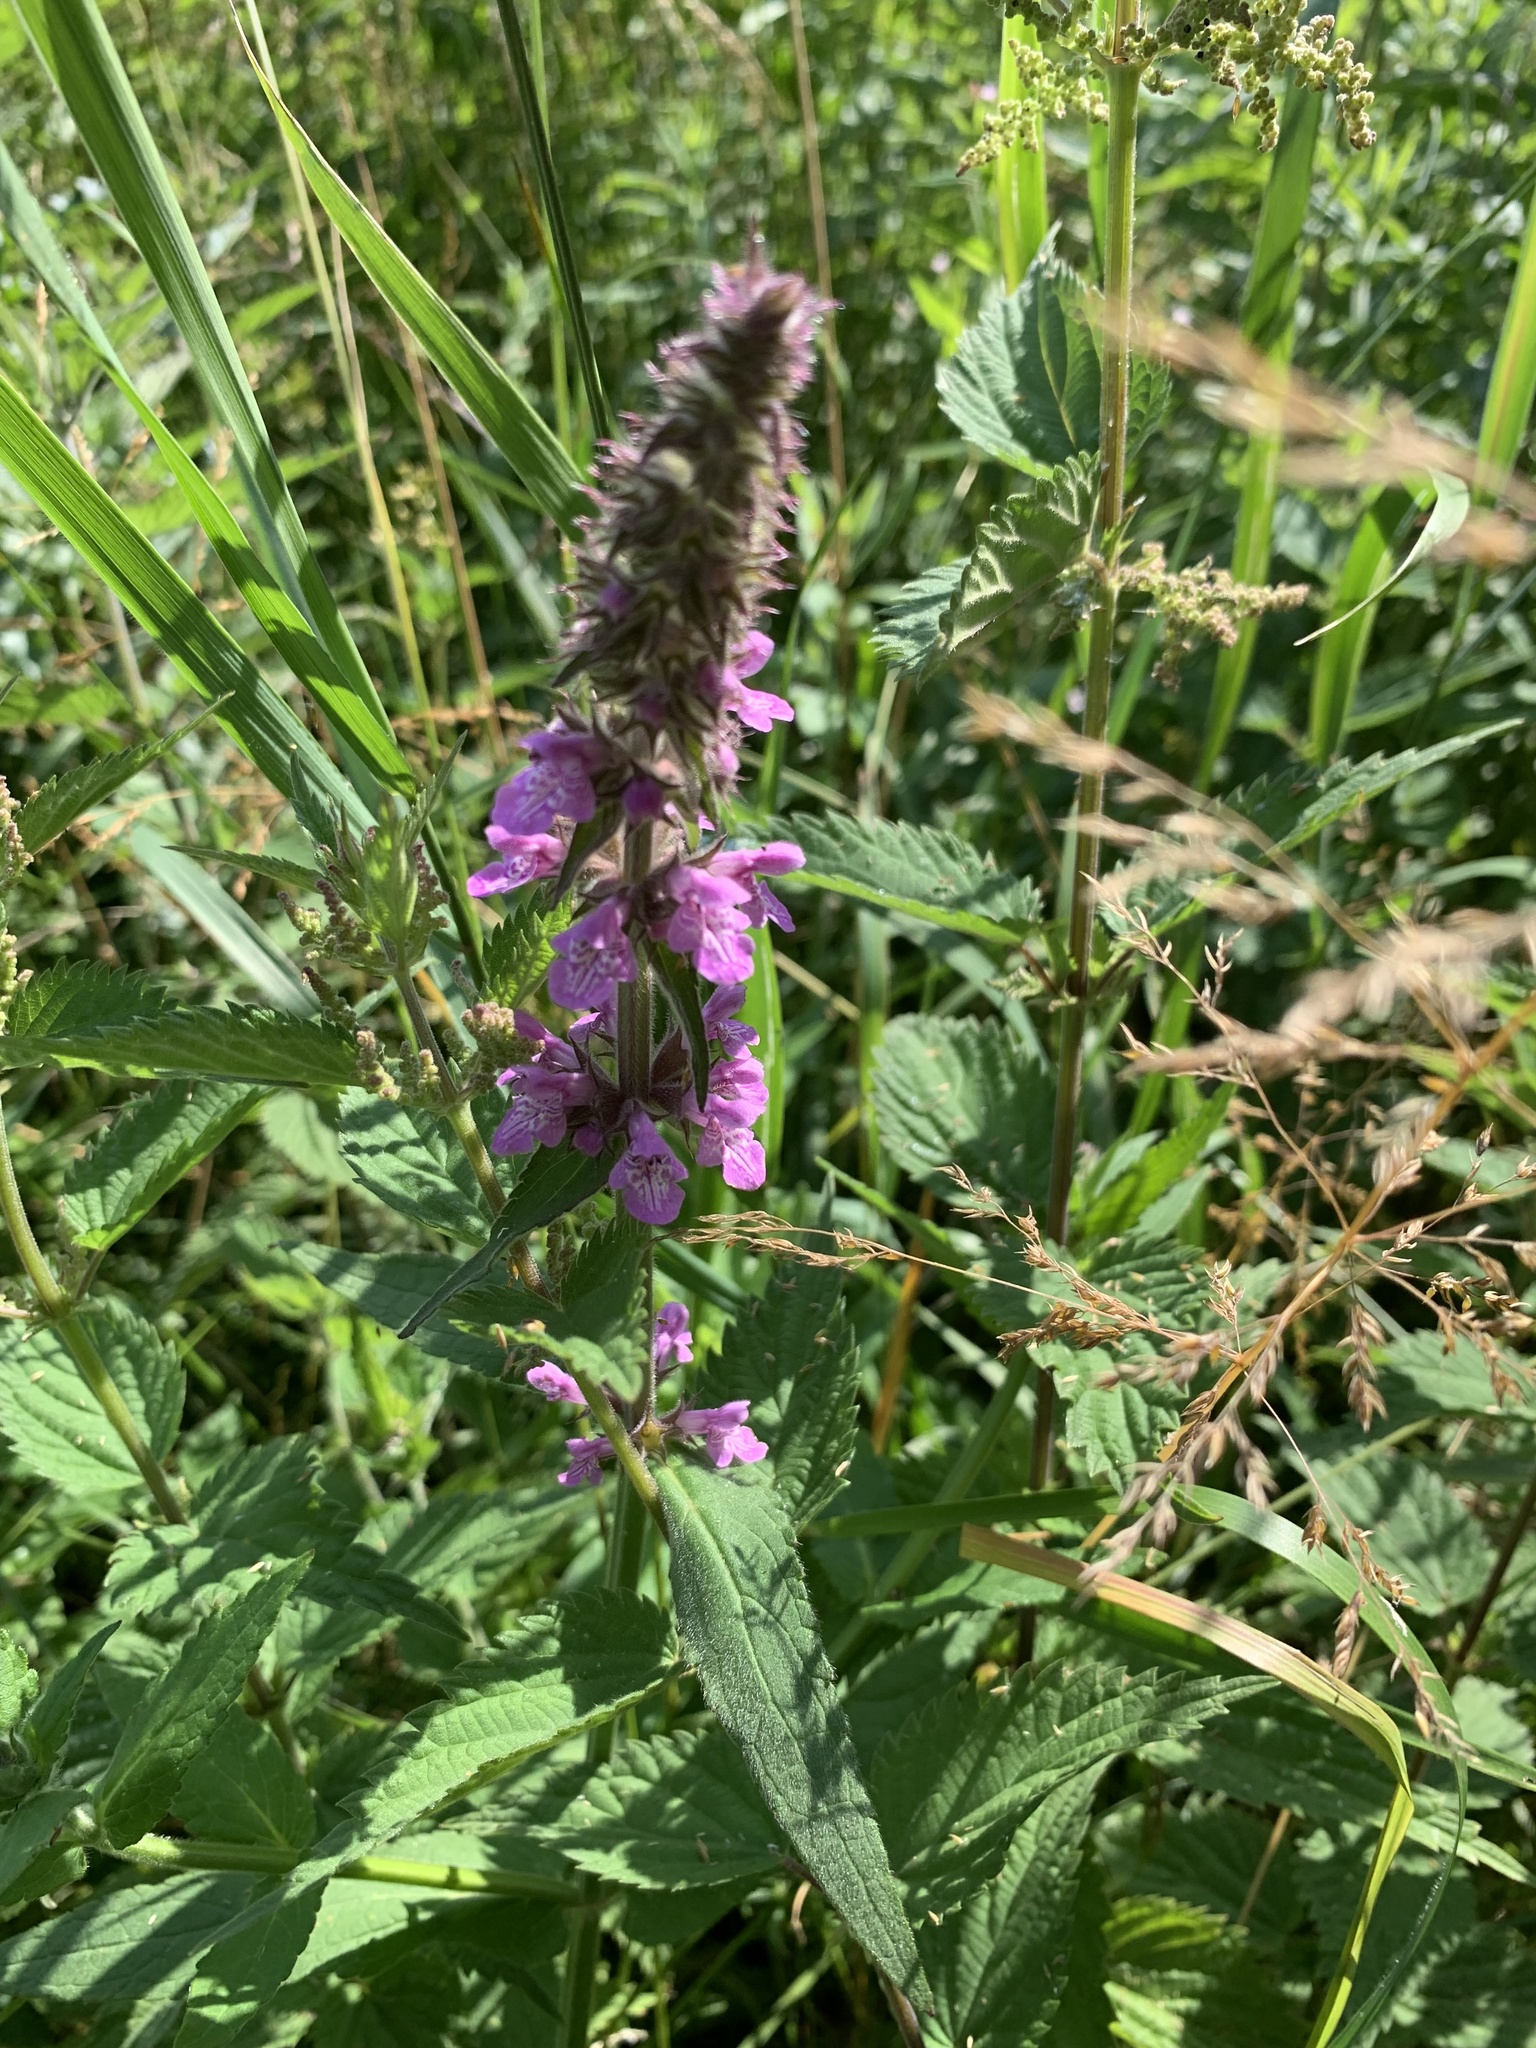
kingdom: Plantae
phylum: Tracheophyta
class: Magnoliopsida
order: Lamiales
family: Lamiaceae
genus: Stachys
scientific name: Stachys palustris
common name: Marsh woundwort
